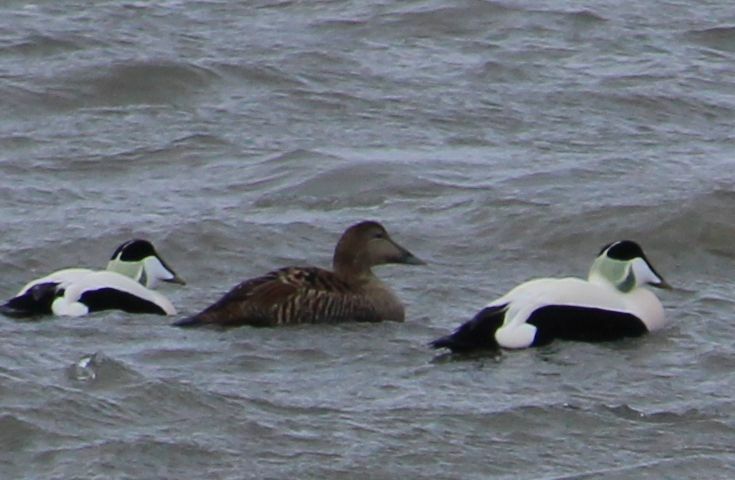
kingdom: Animalia
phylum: Chordata
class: Aves
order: Anseriformes
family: Anatidae
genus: Somateria
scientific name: Somateria mollissima
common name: Common eider
